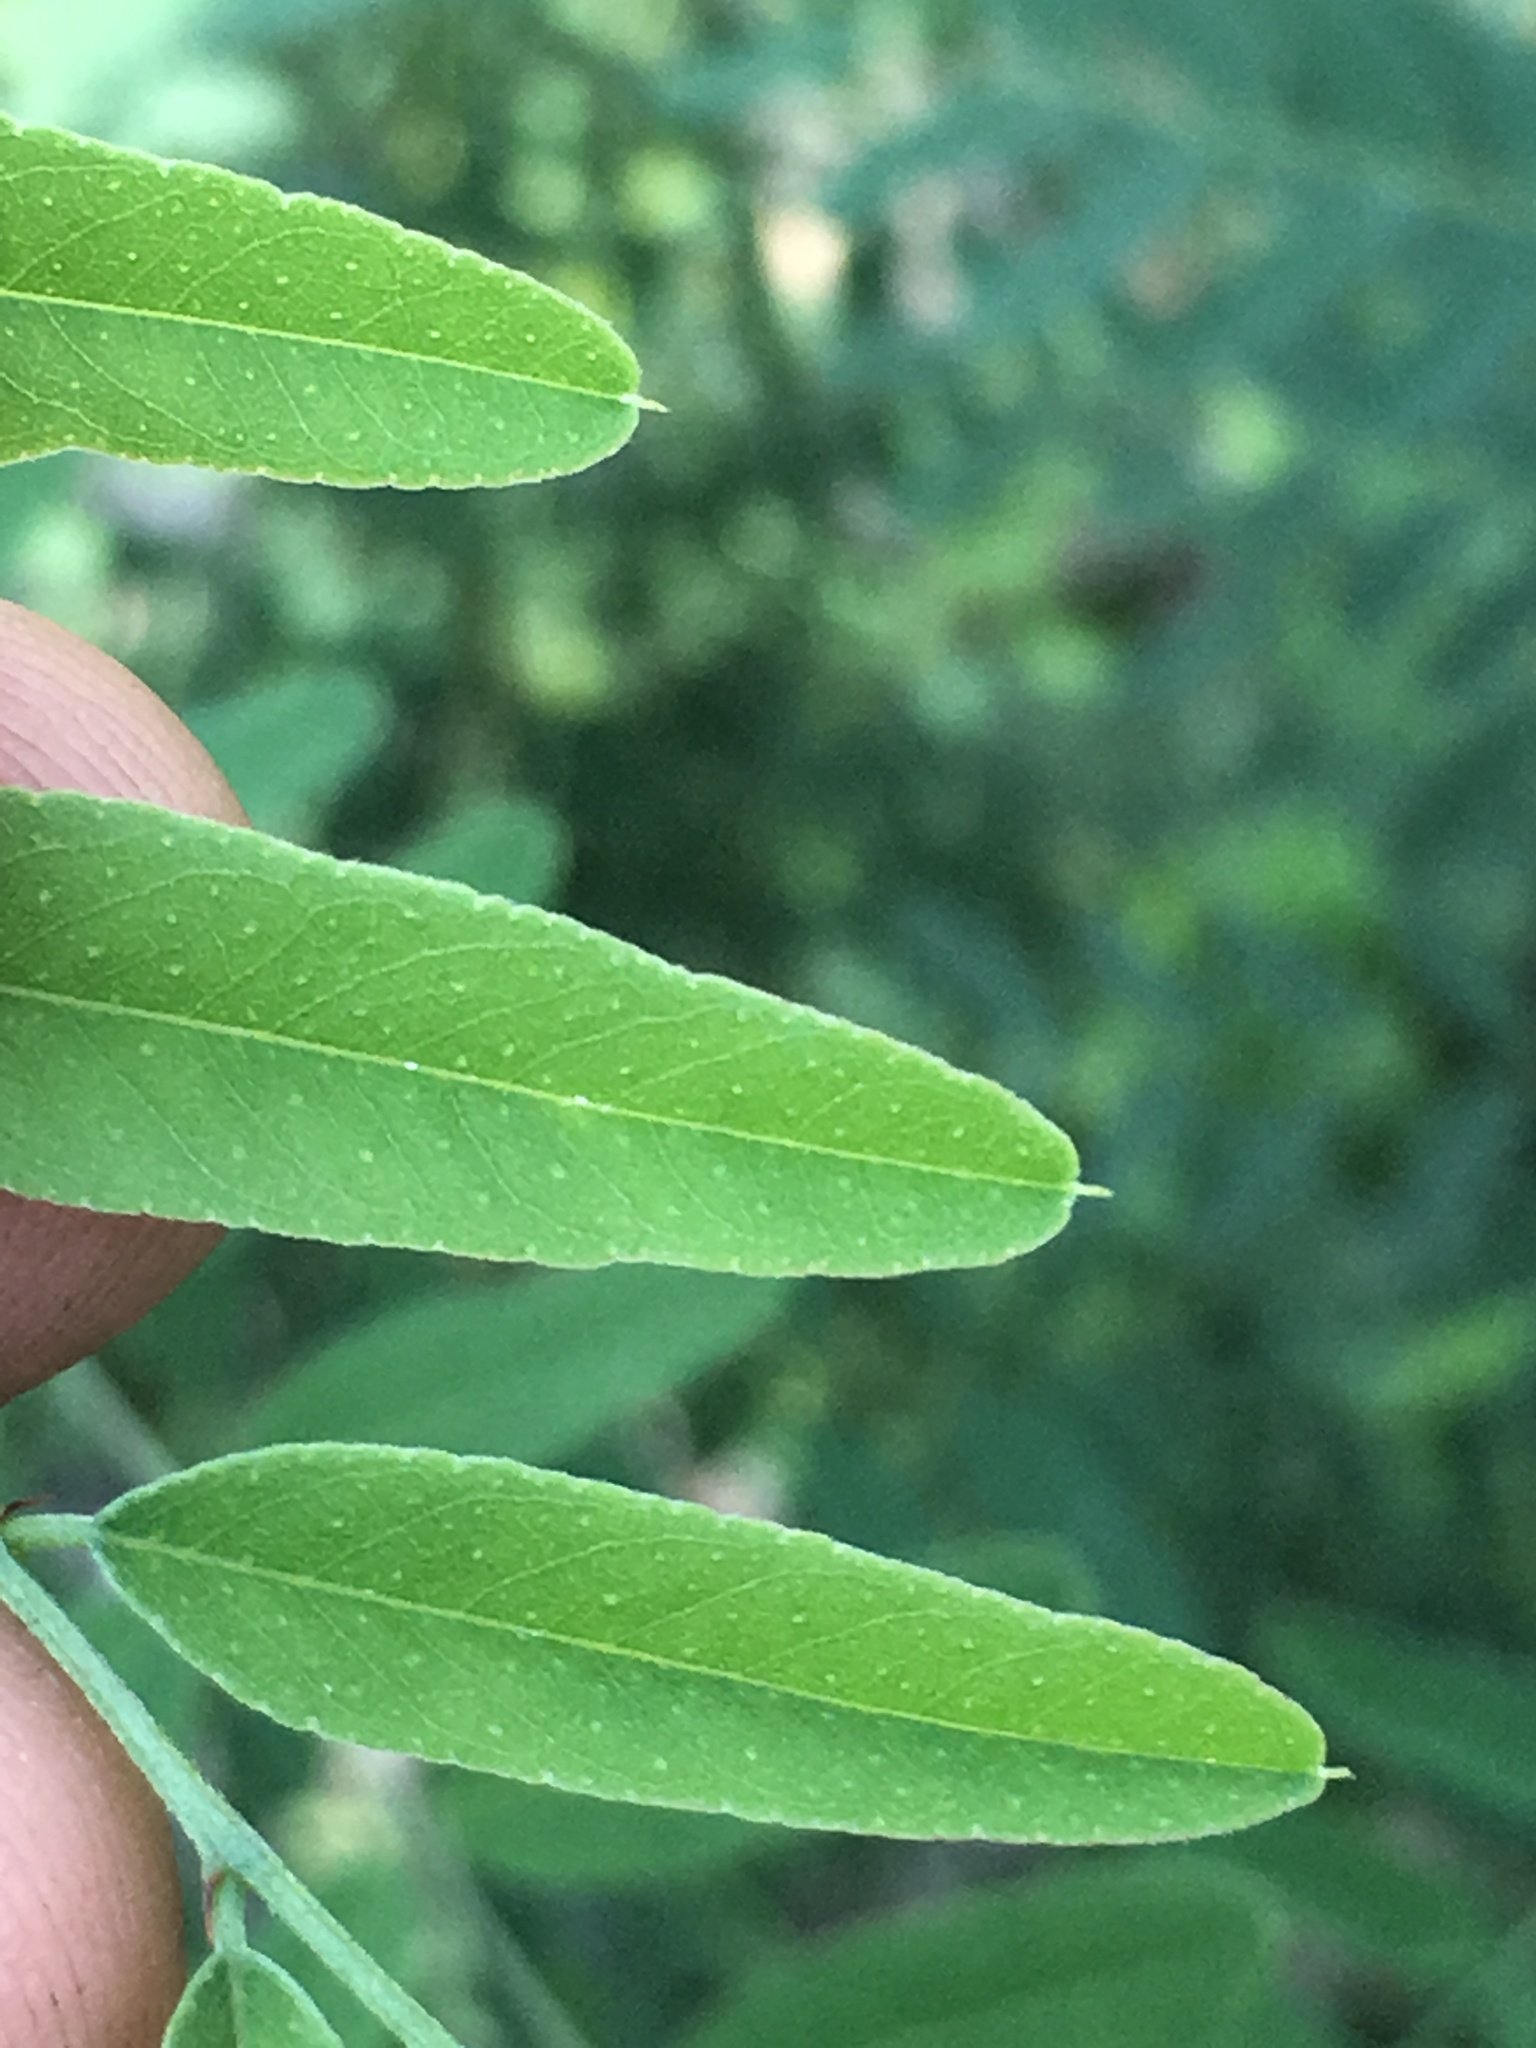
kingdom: Plantae
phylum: Tracheophyta
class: Magnoliopsida
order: Fabales
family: Fabaceae
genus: Amorpha
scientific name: Amorpha fruticosa
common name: False indigo
